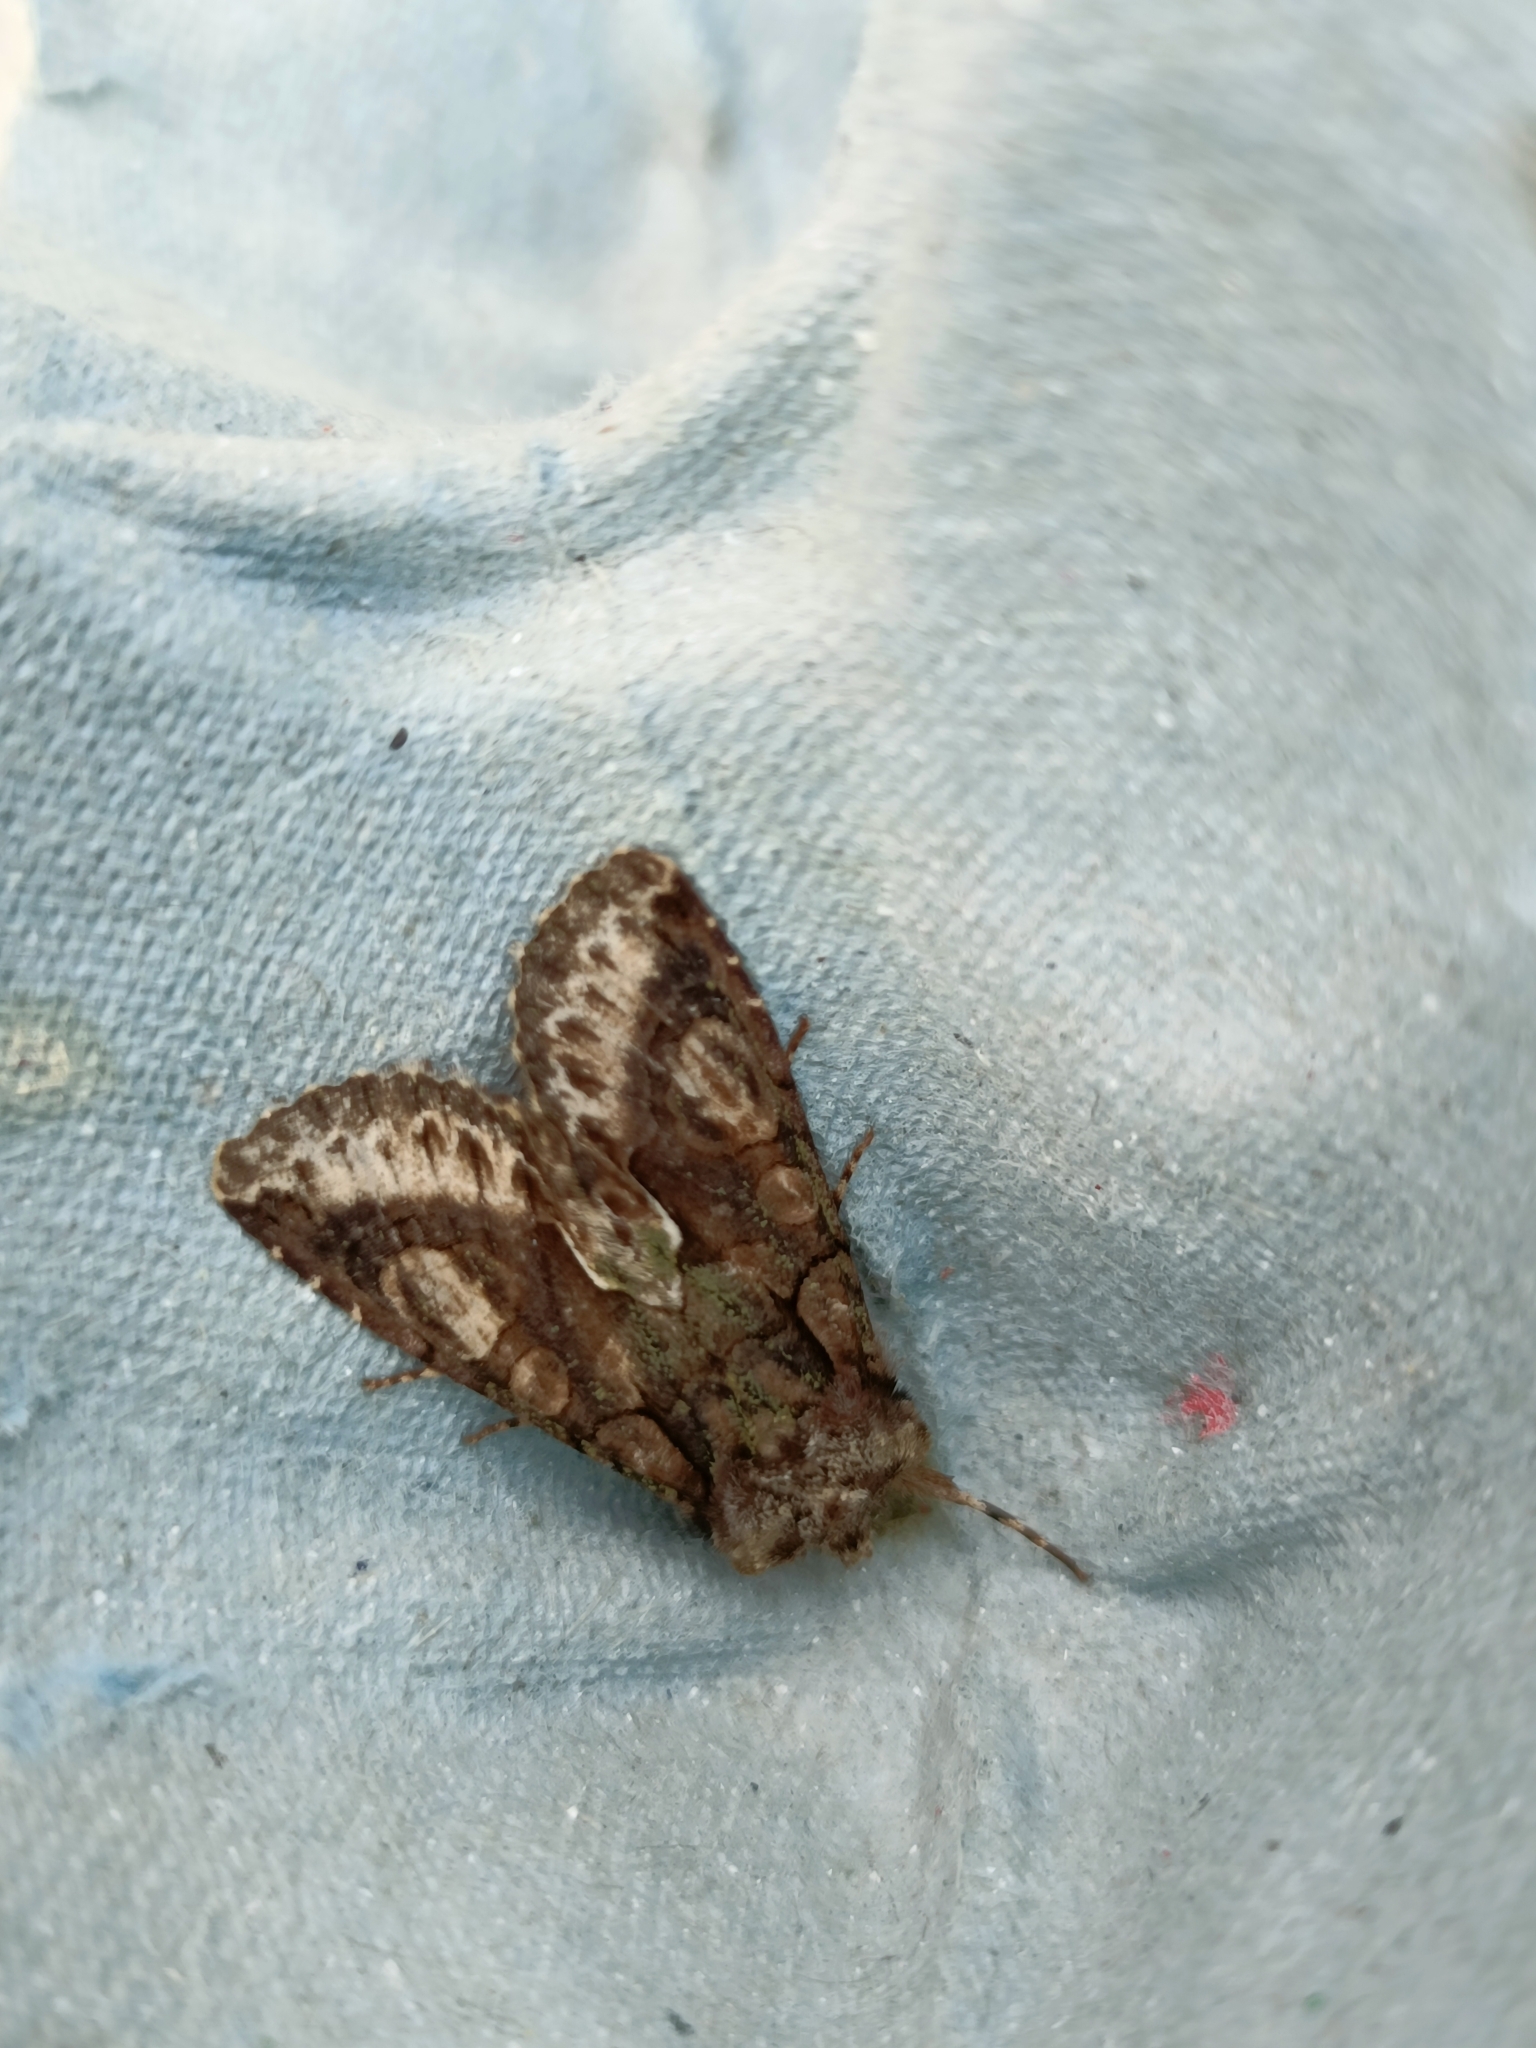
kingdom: Animalia
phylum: Arthropoda
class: Insecta
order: Lepidoptera
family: Noctuidae
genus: Allophyes
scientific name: Allophyes oxyacanthae
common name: Green-brindled crescent
